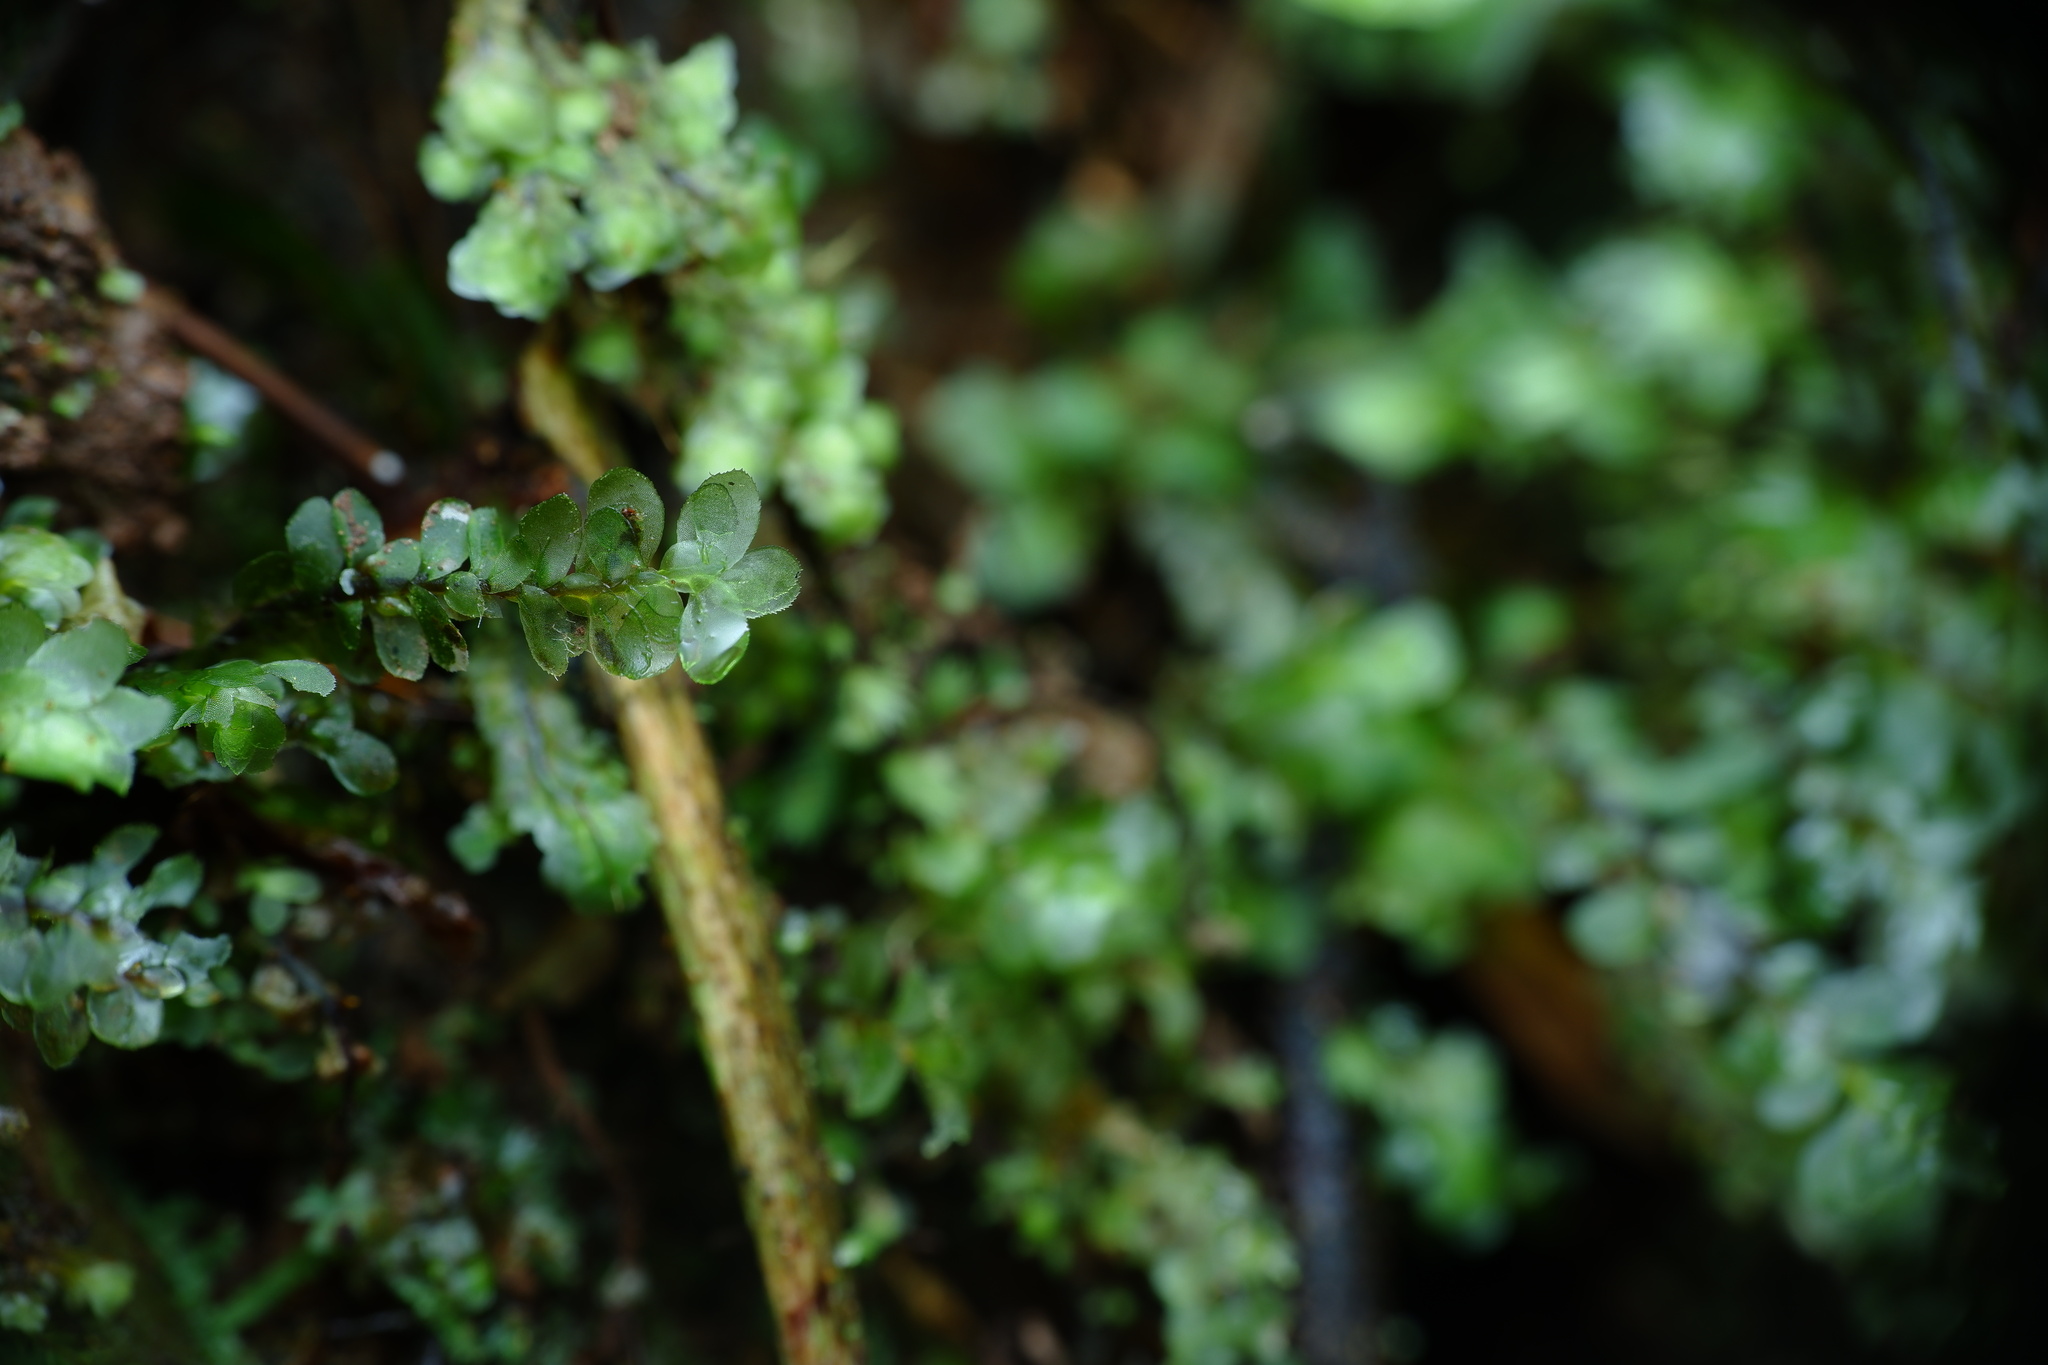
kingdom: Plantae
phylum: Bryophyta
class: Bryopsida
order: Hookeriales
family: Daltoniaceae
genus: Achrophyllum
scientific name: Achrophyllum dentatum
